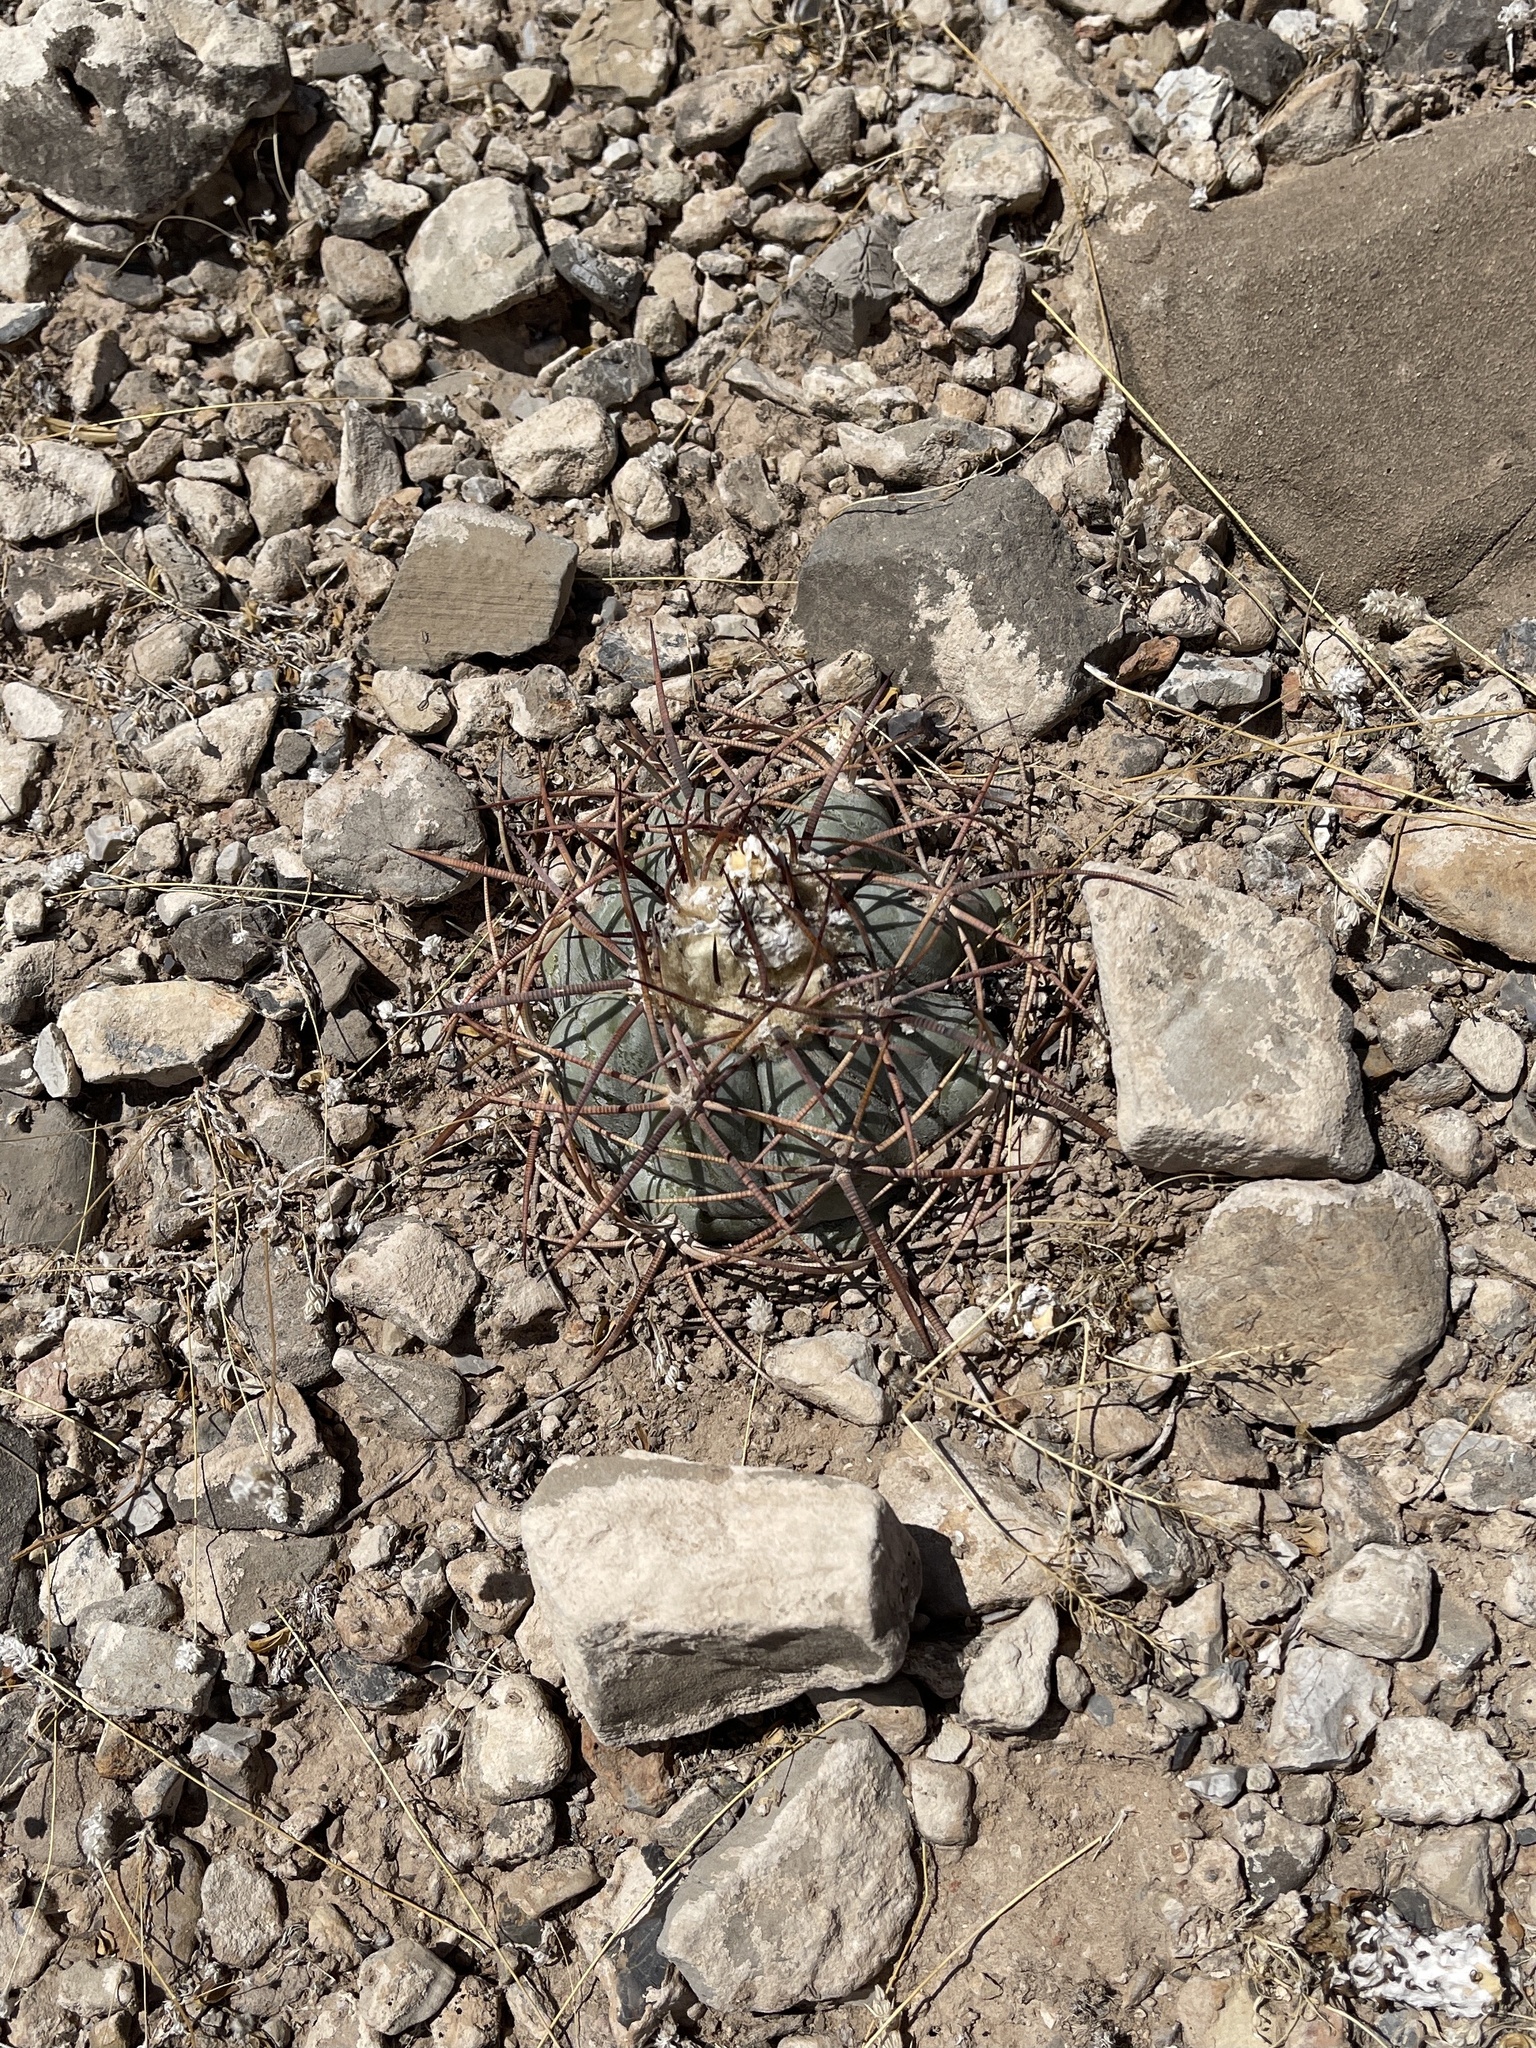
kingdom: Plantae
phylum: Tracheophyta
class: Magnoliopsida
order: Caryophyllales
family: Cactaceae
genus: Echinocactus
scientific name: Echinocactus horizonthalonius
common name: Devilshead
